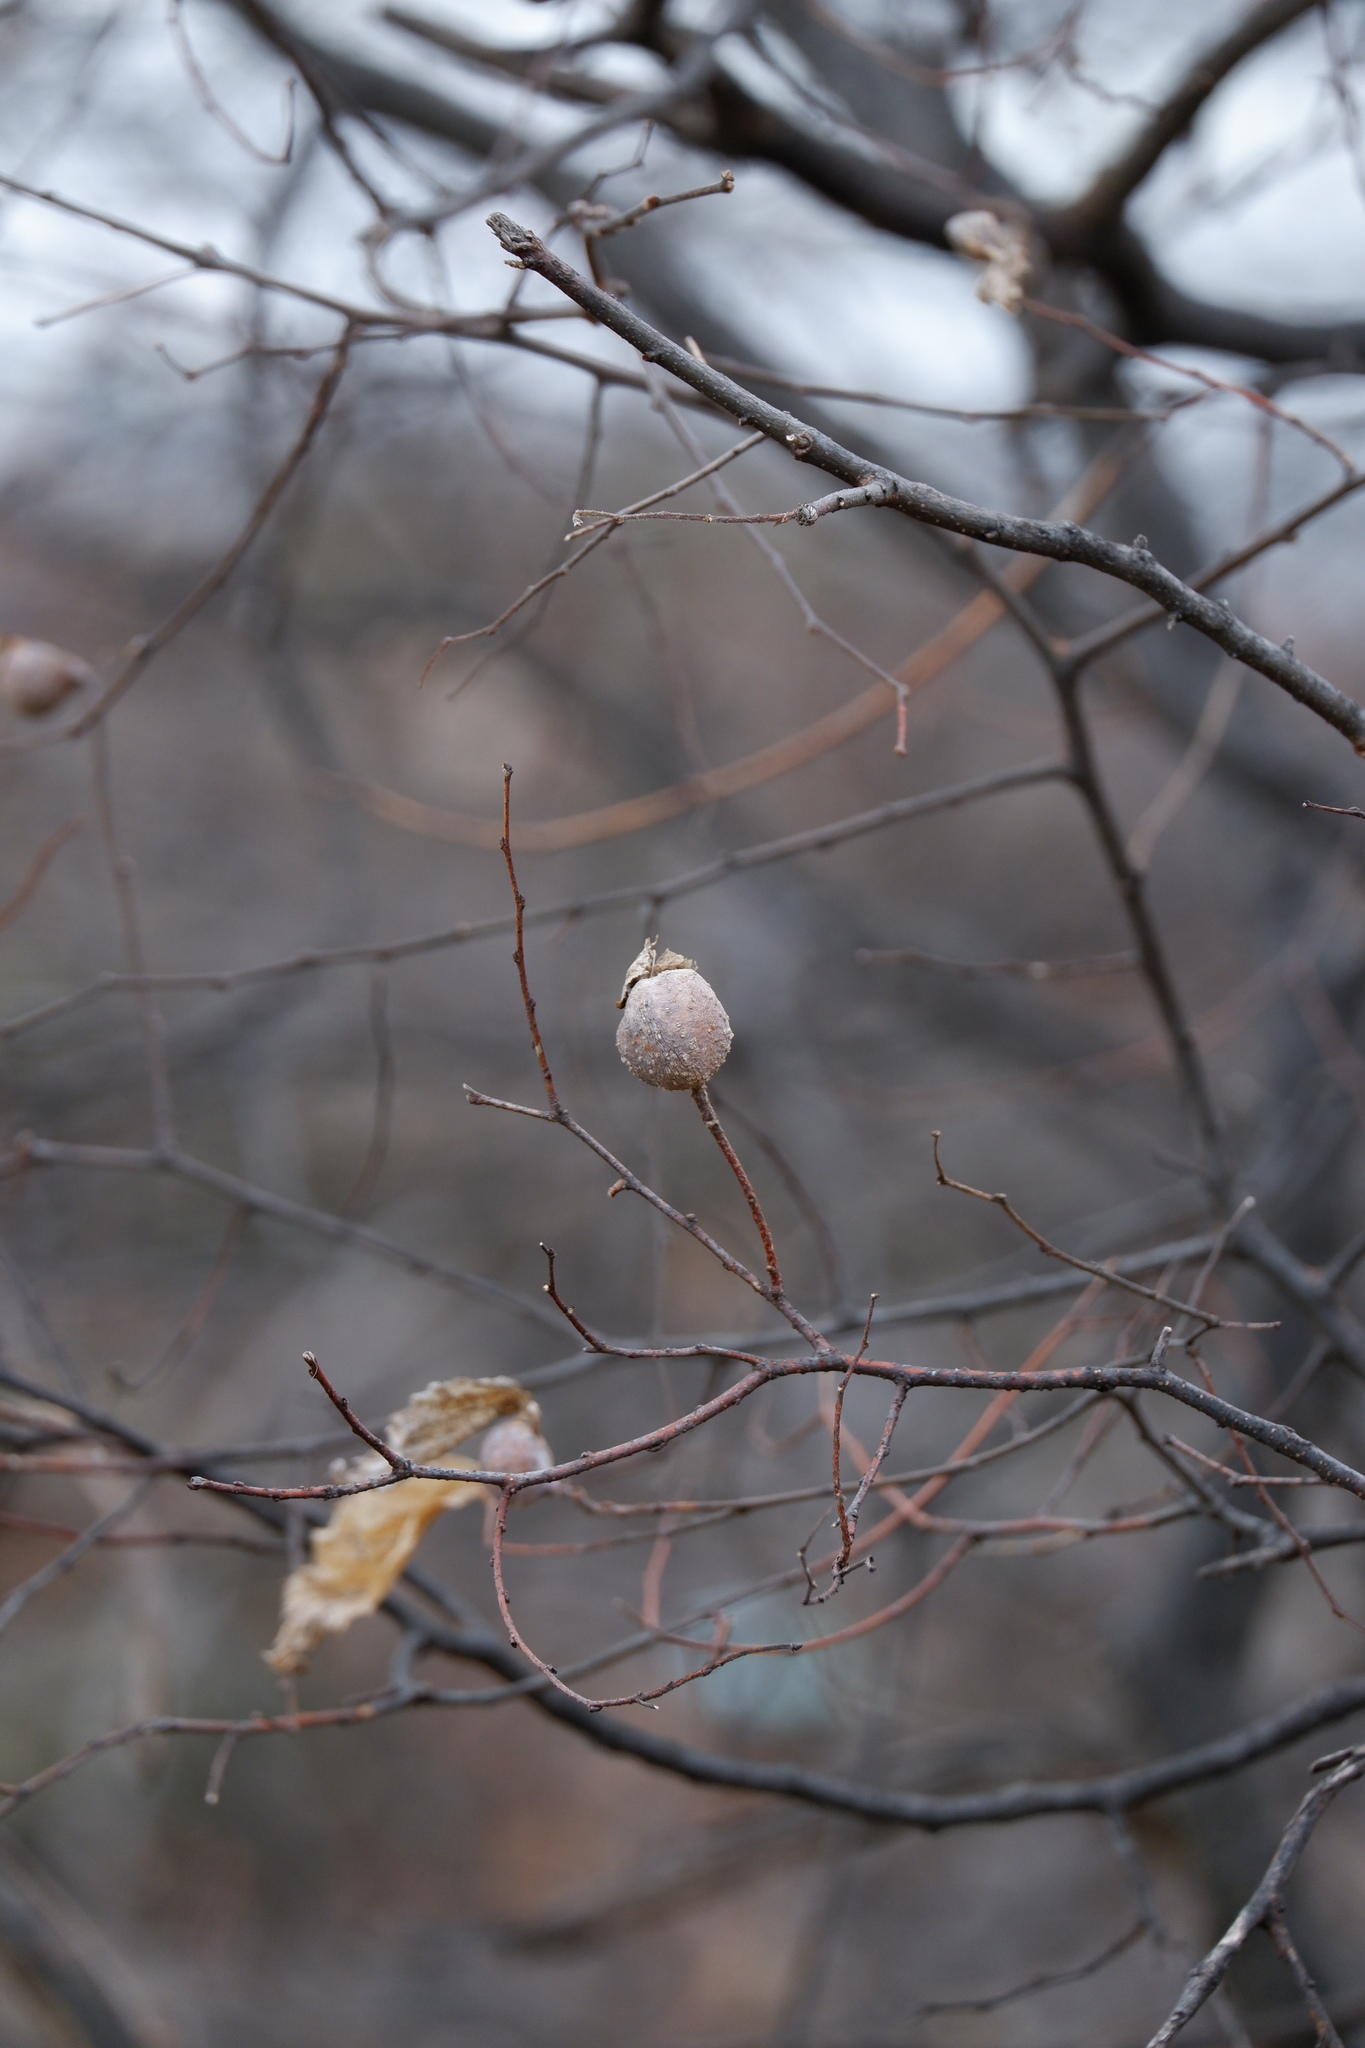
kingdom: Animalia
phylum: Arthropoda
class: Insecta
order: Hemiptera
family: Aphalaridae
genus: Pachypsylla
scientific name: Pachypsylla venusta
